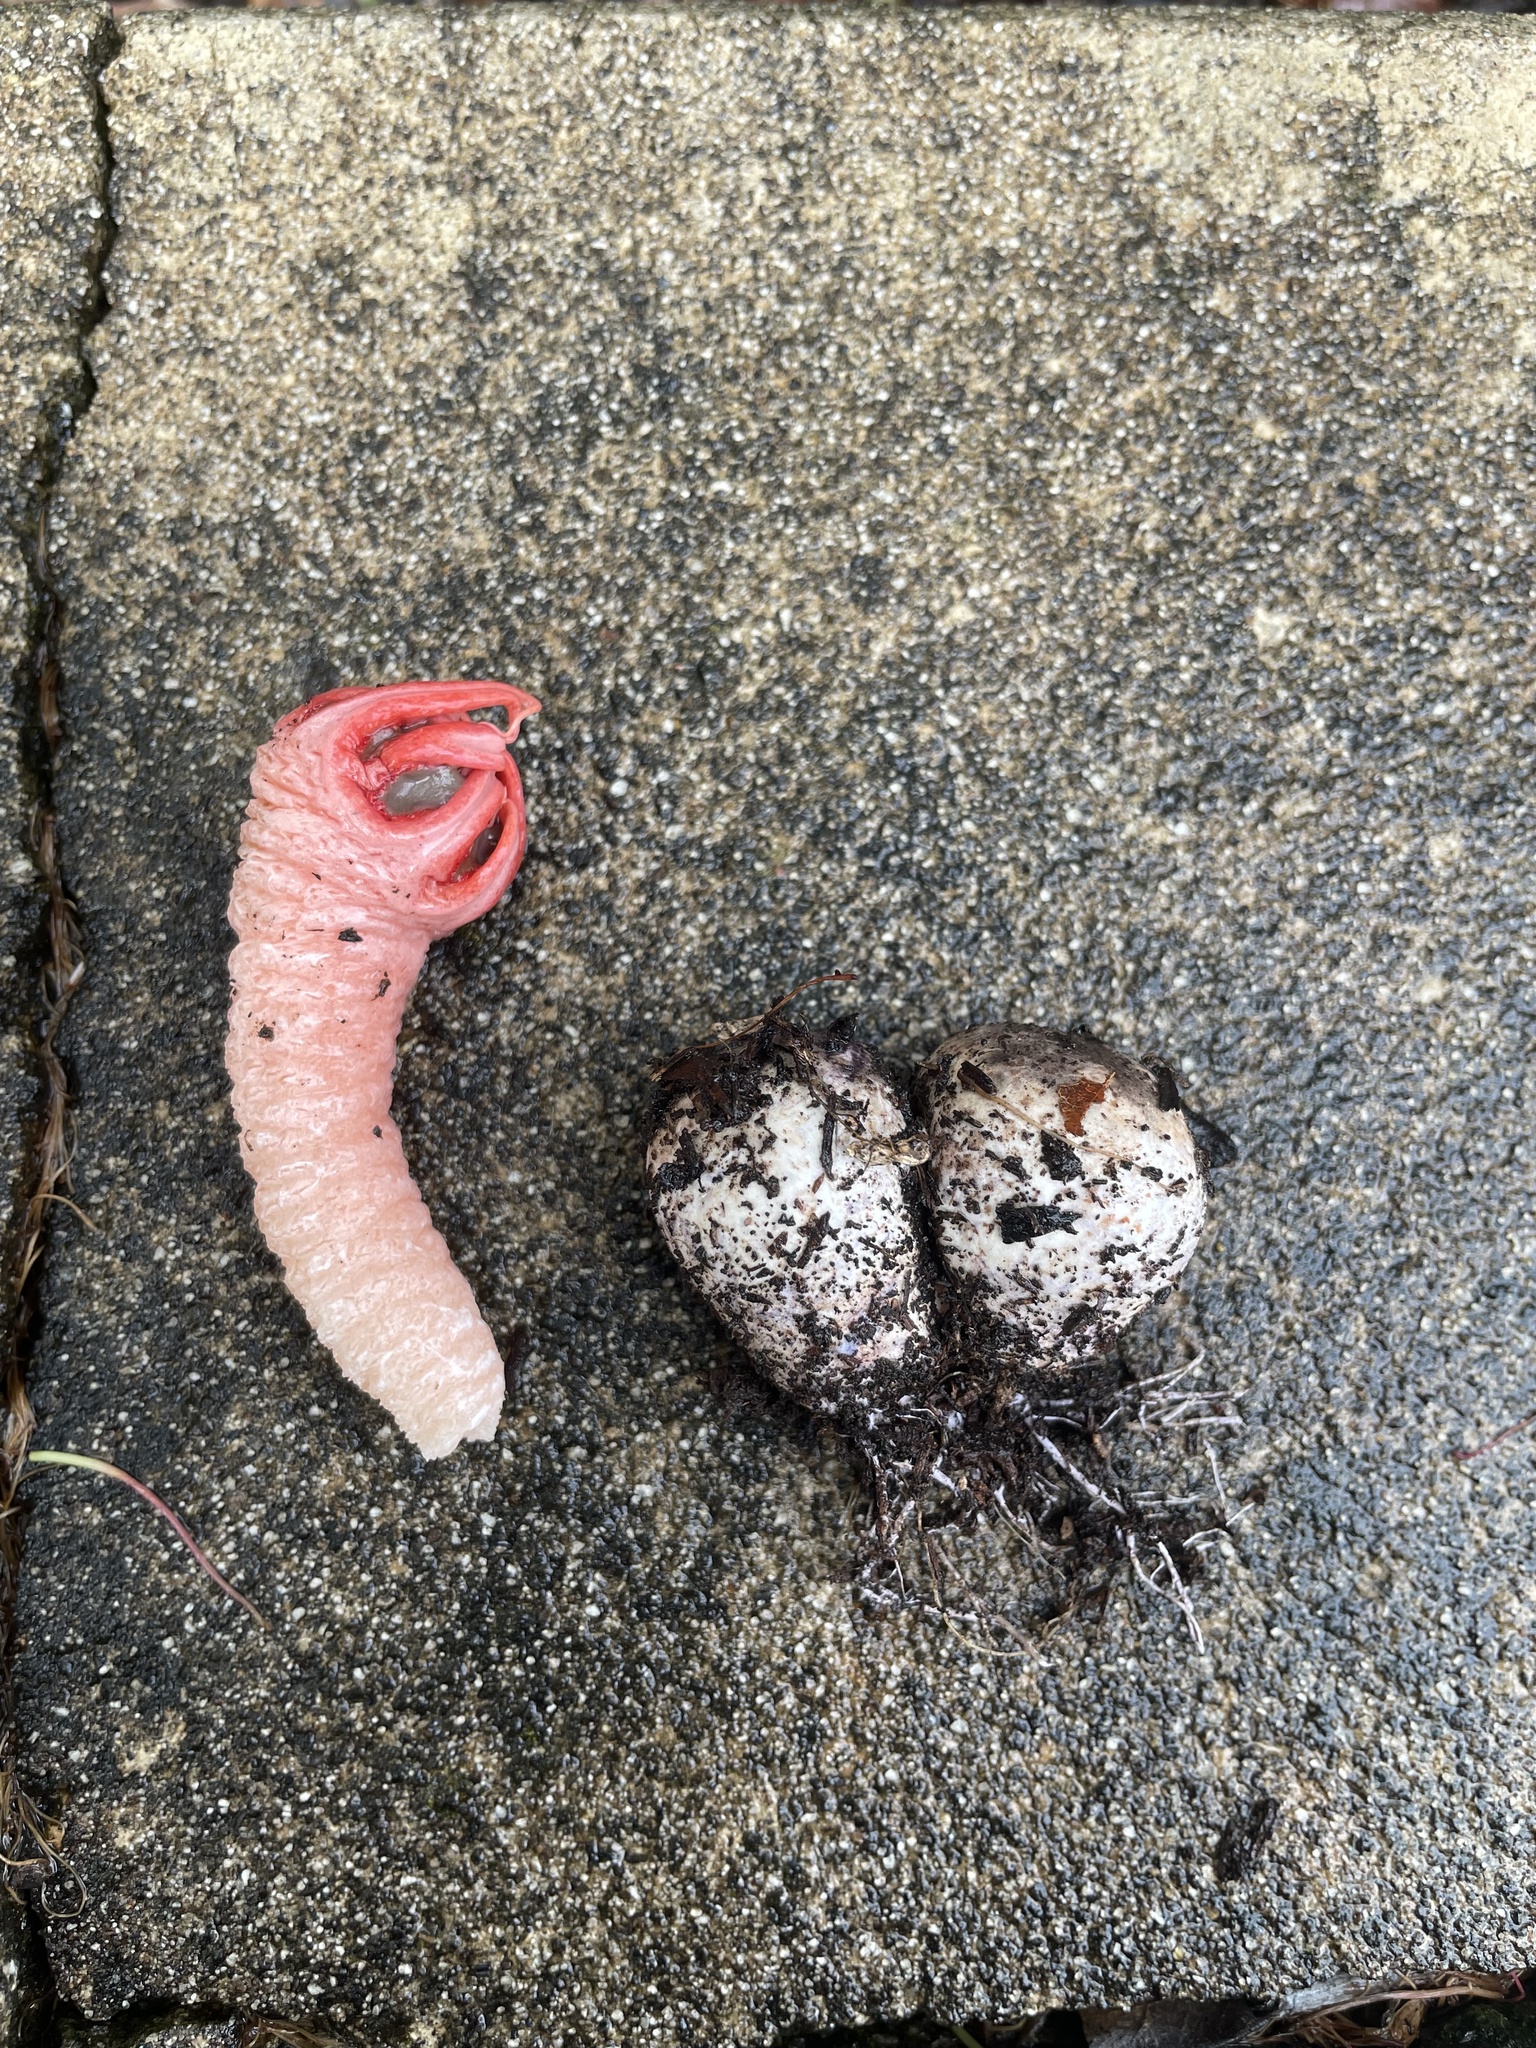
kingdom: Fungi
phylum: Basidiomycota
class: Agaricomycetes
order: Phallales
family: Phallaceae
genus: Aseroe
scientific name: Aseroe rubra
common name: Starfish fungus
